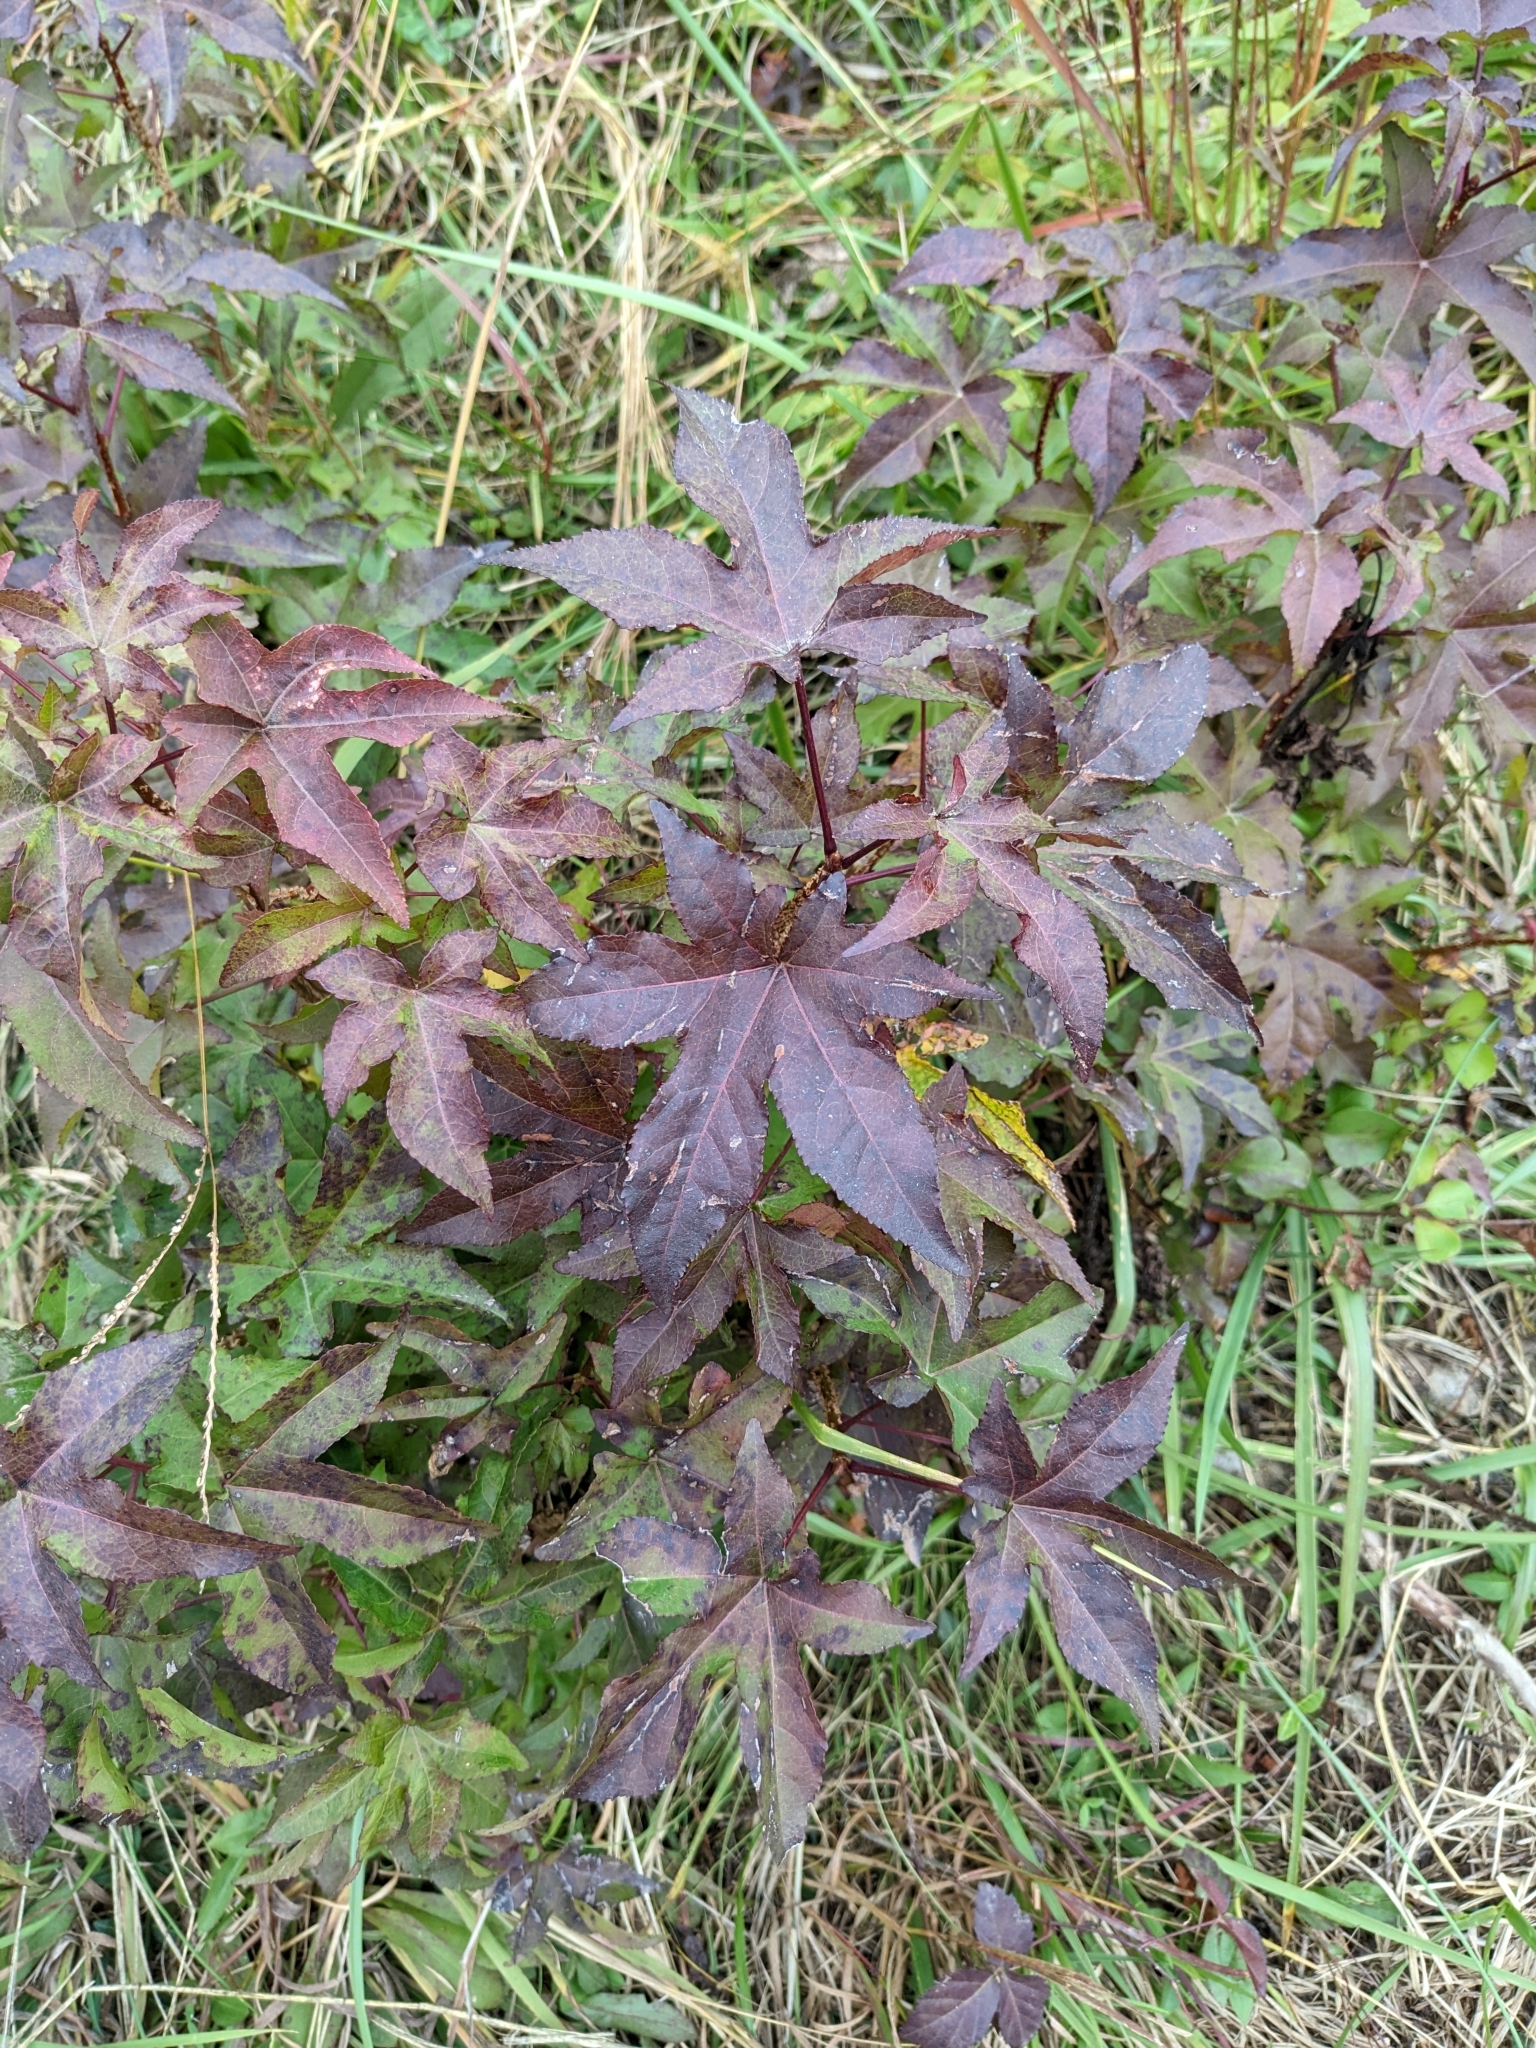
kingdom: Plantae
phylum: Tracheophyta
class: Magnoliopsida
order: Saxifragales
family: Altingiaceae
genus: Liquidambar
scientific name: Liquidambar styraciflua
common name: Sweet gum
